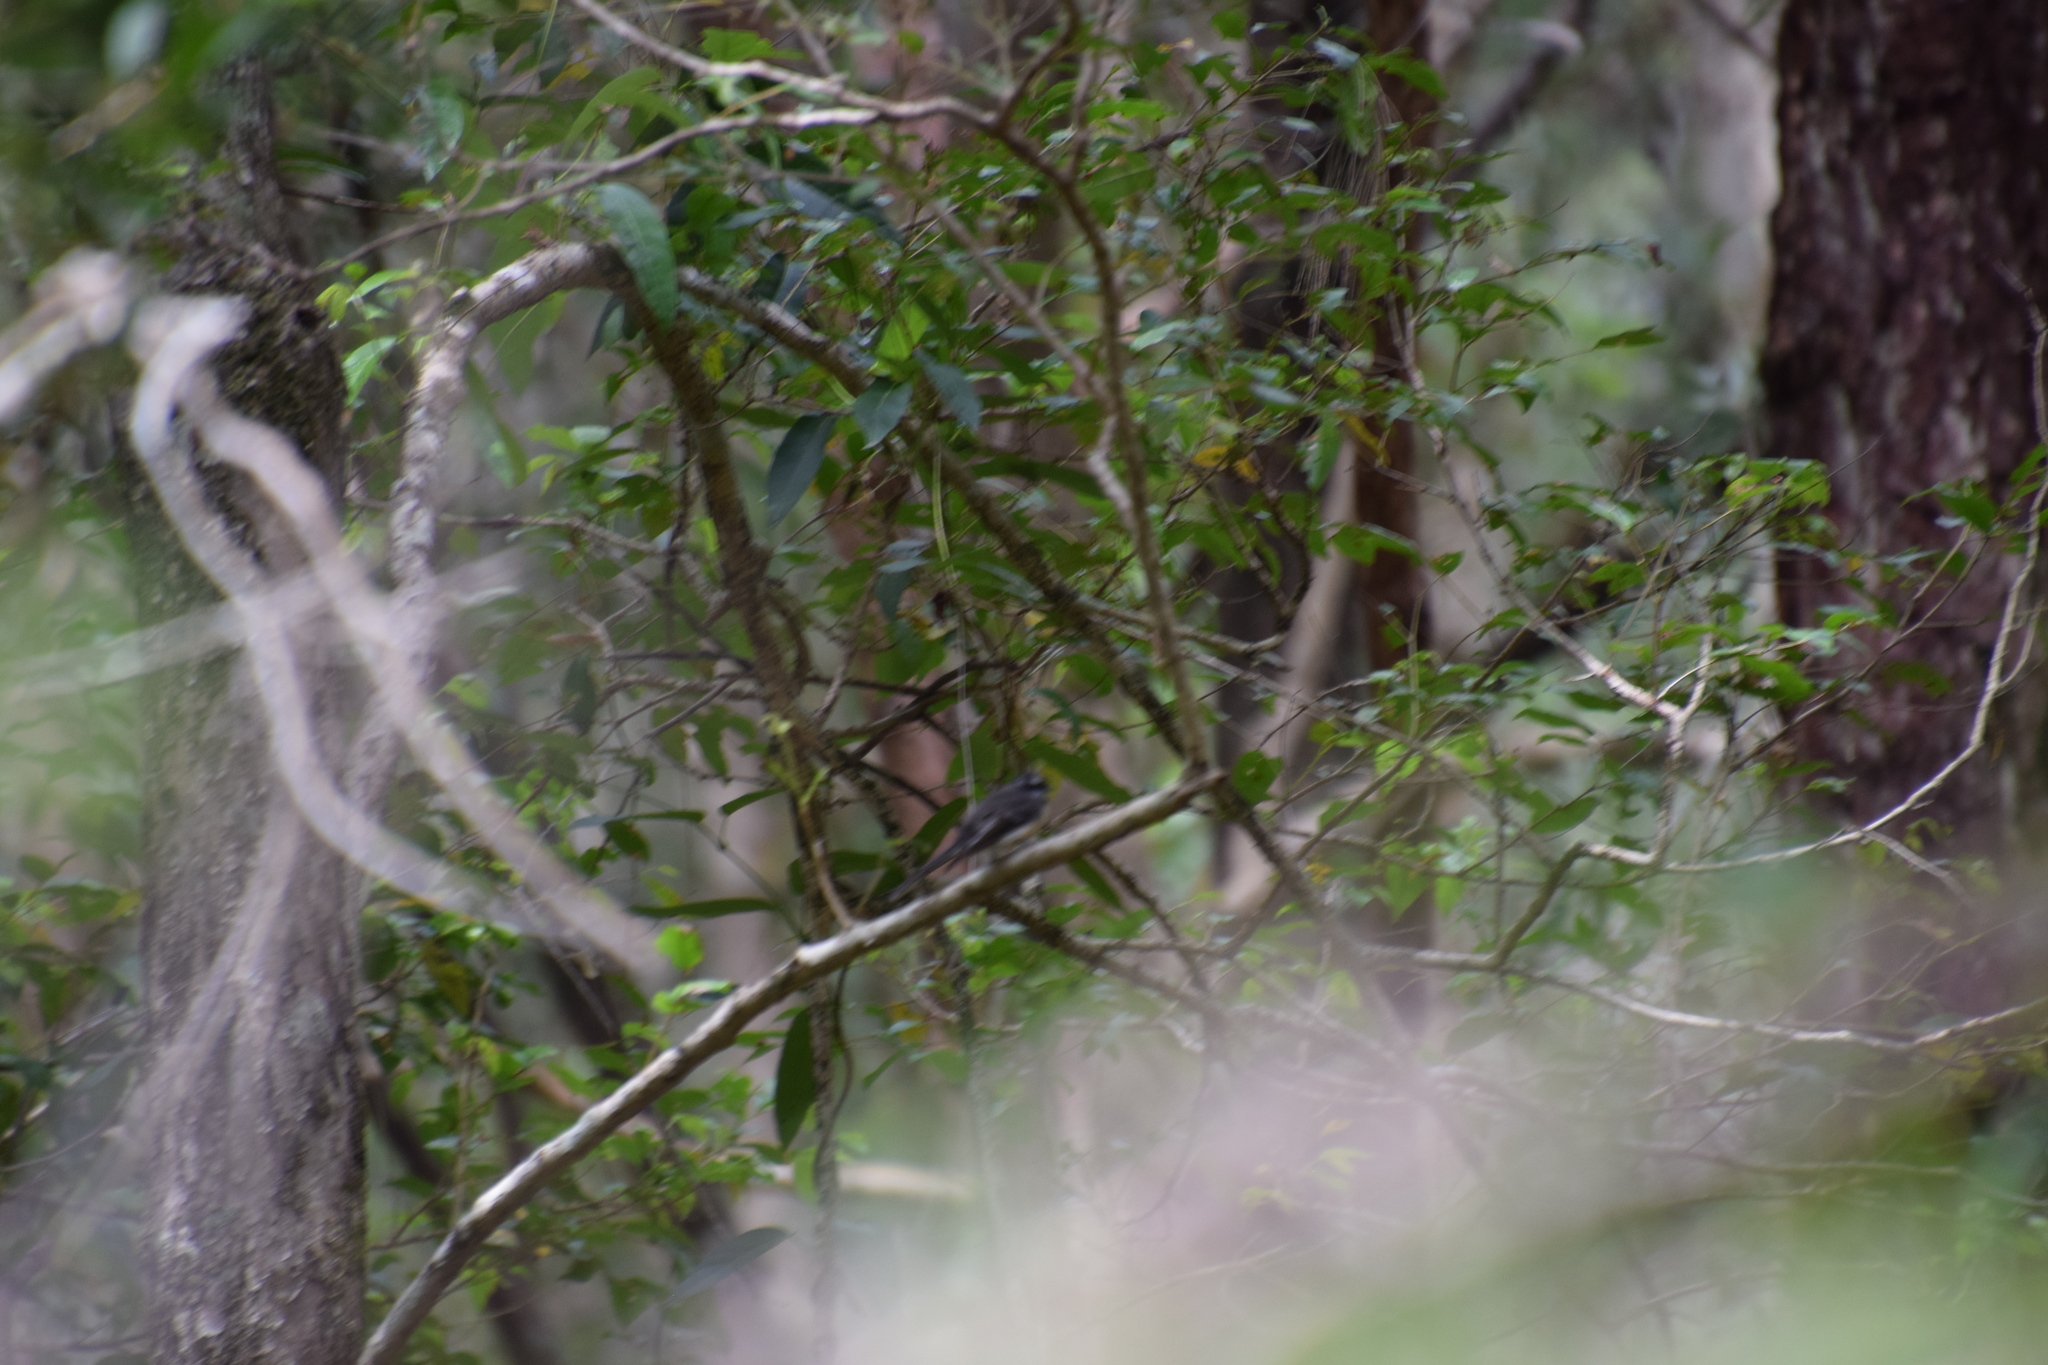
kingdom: Animalia
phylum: Chordata
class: Aves
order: Passeriformes
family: Rhipiduridae
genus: Rhipidura
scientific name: Rhipidura albiscapa
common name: Grey fantail
